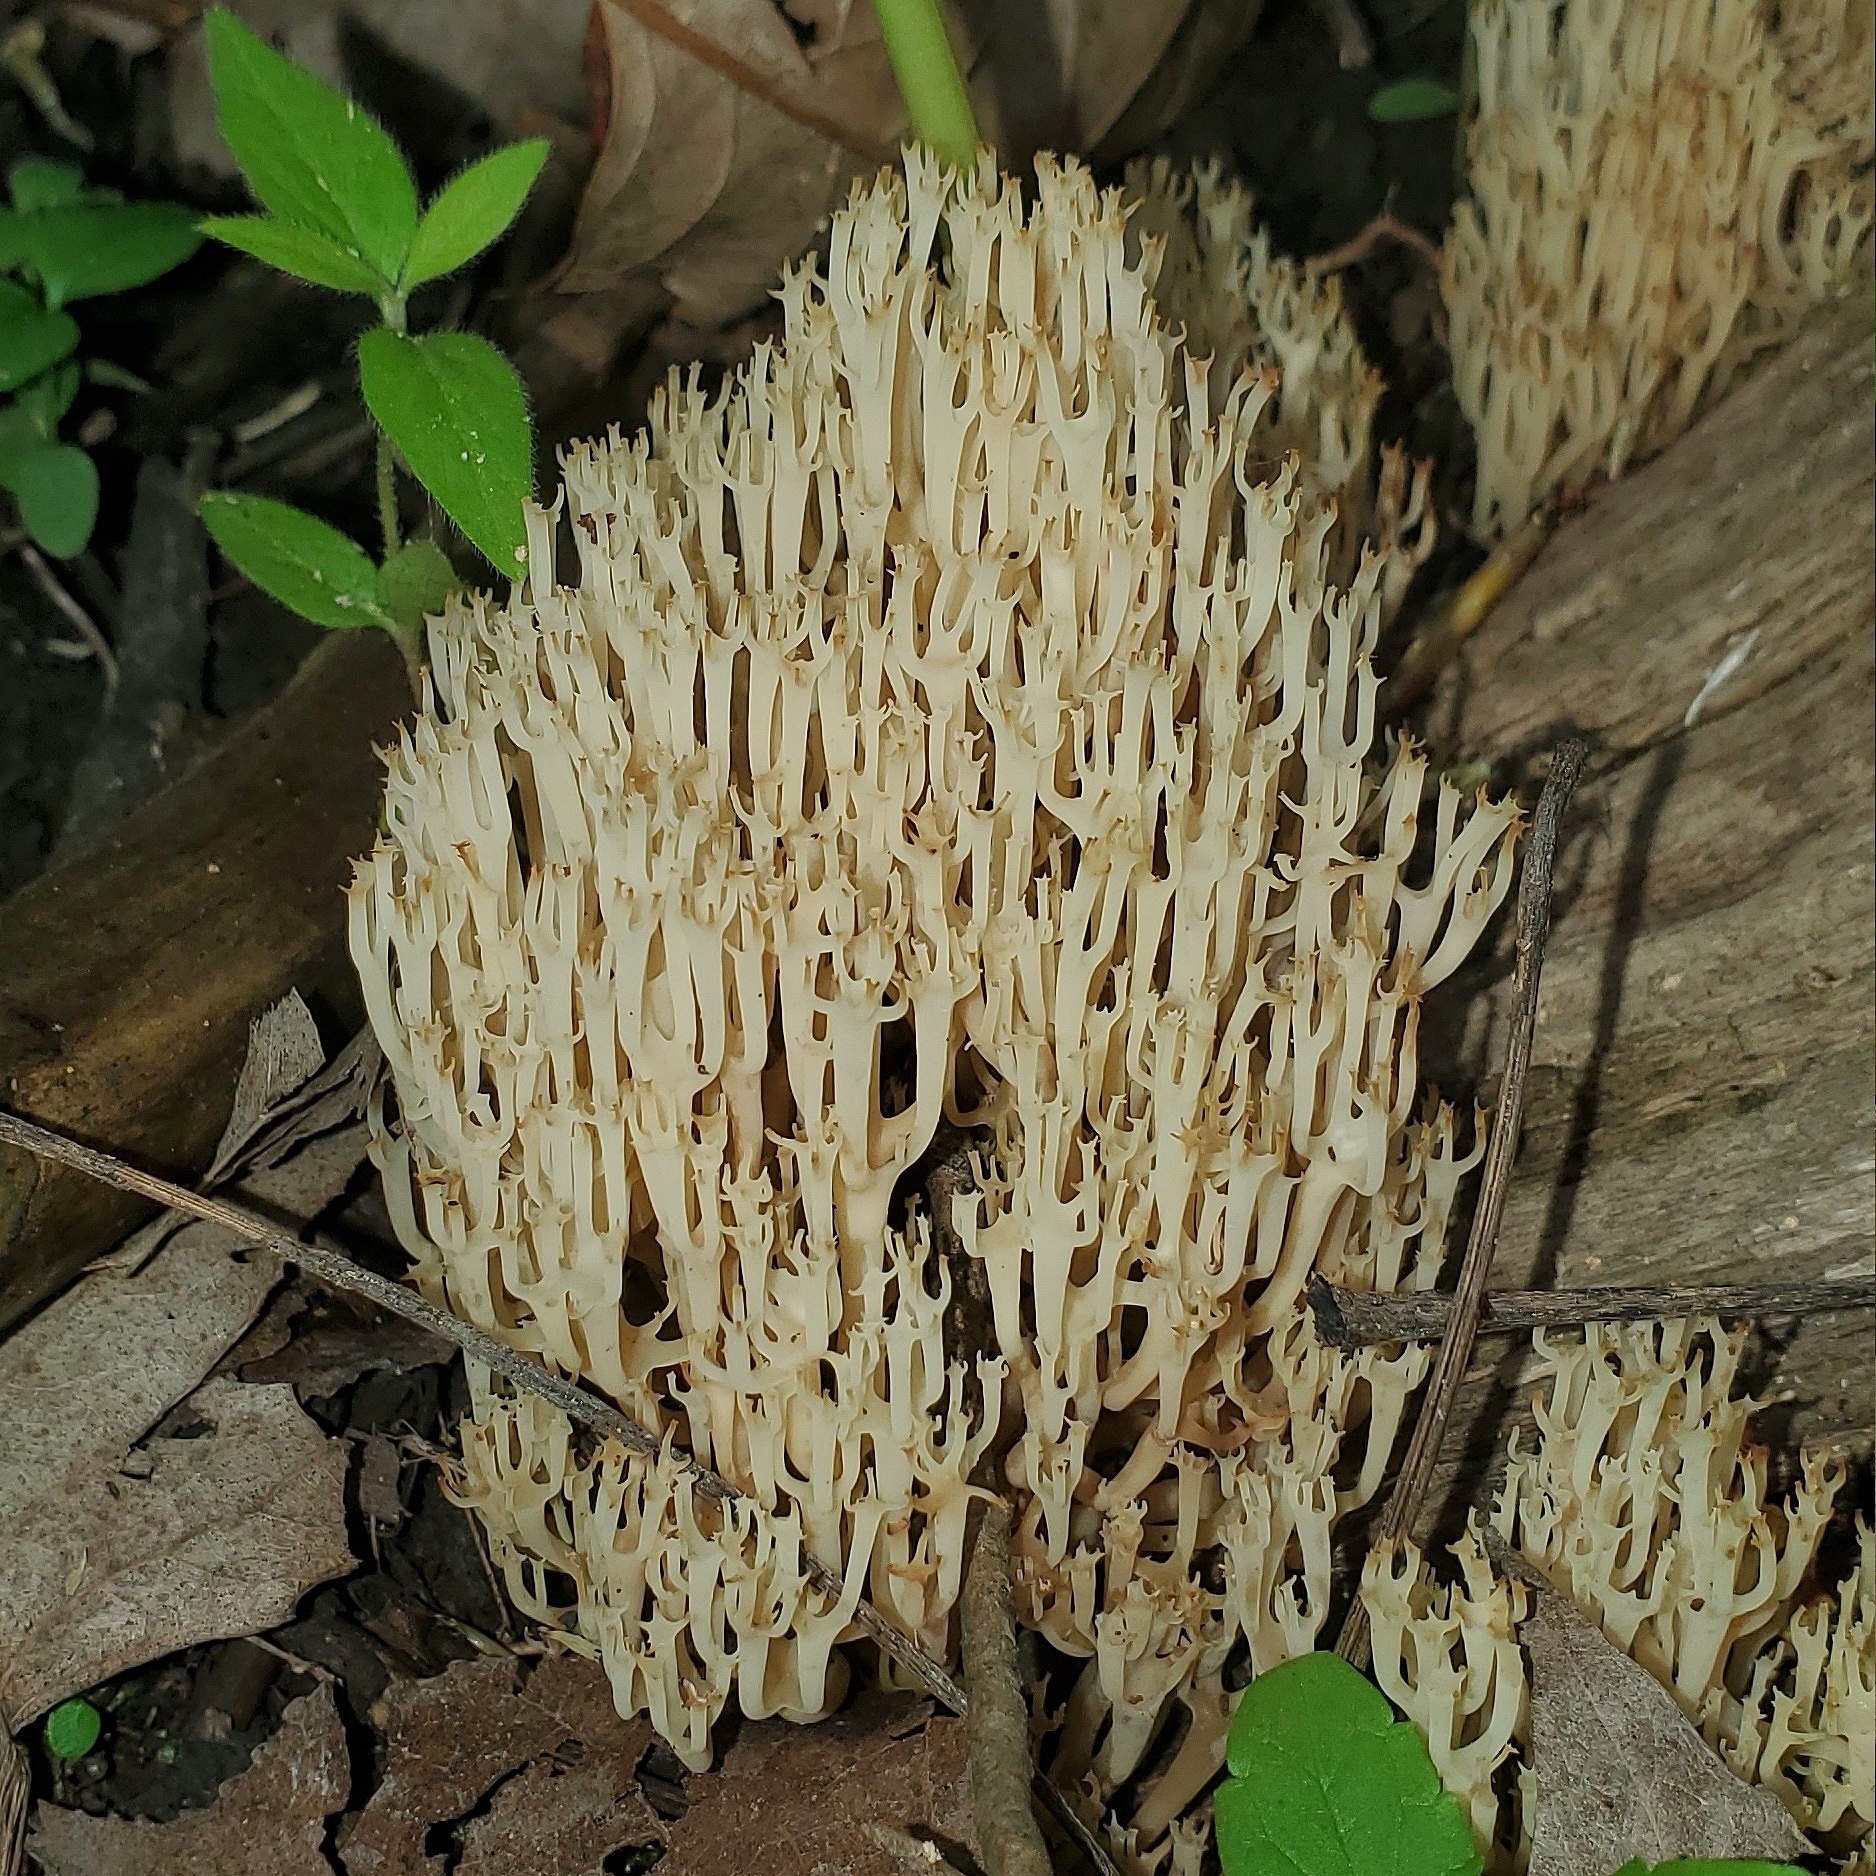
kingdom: Fungi
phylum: Basidiomycota
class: Agaricomycetes
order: Russulales
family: Auriscalpiaceae
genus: Artomyces
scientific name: Artomyces pyxidatus
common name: Crown-tipped coral fungus
